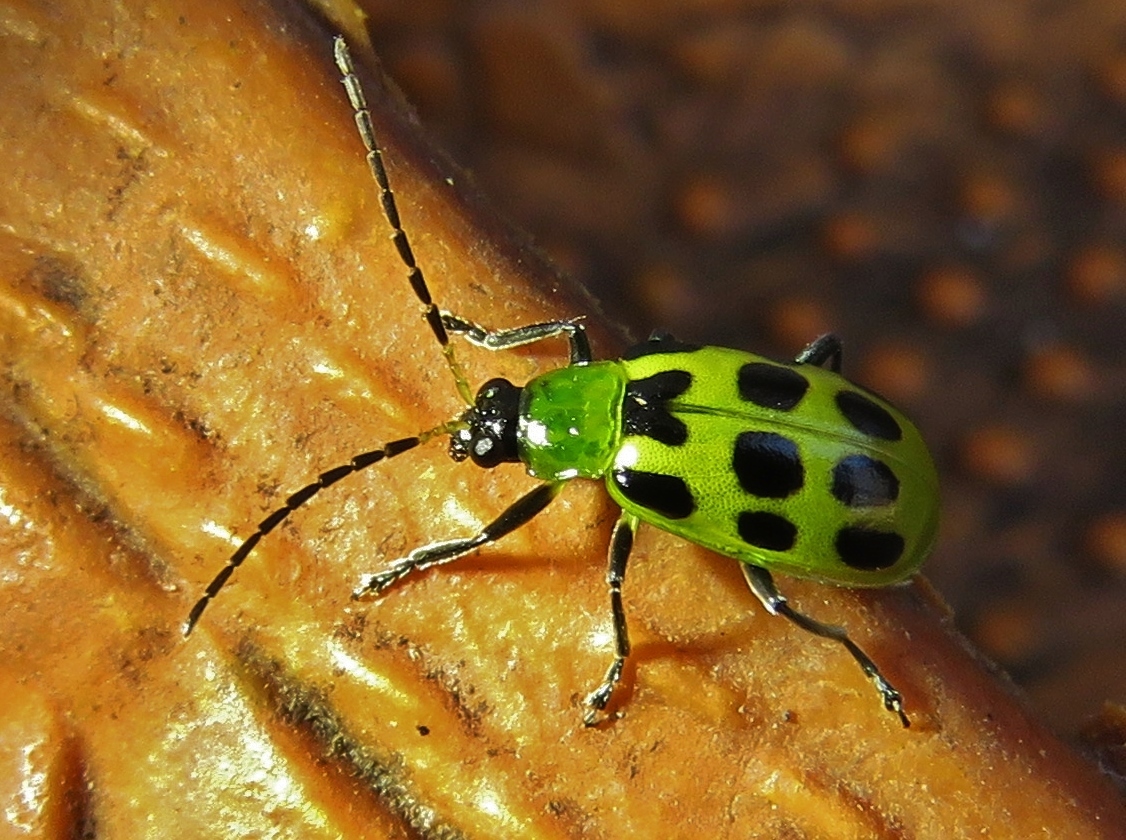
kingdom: Animalia
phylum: Arthropoda
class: Insecta
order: Coleoptera
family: Chrysomelidae
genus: Diabrotica
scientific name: Diabrotica undecimpunctata
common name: Spotted cucumber beetle
